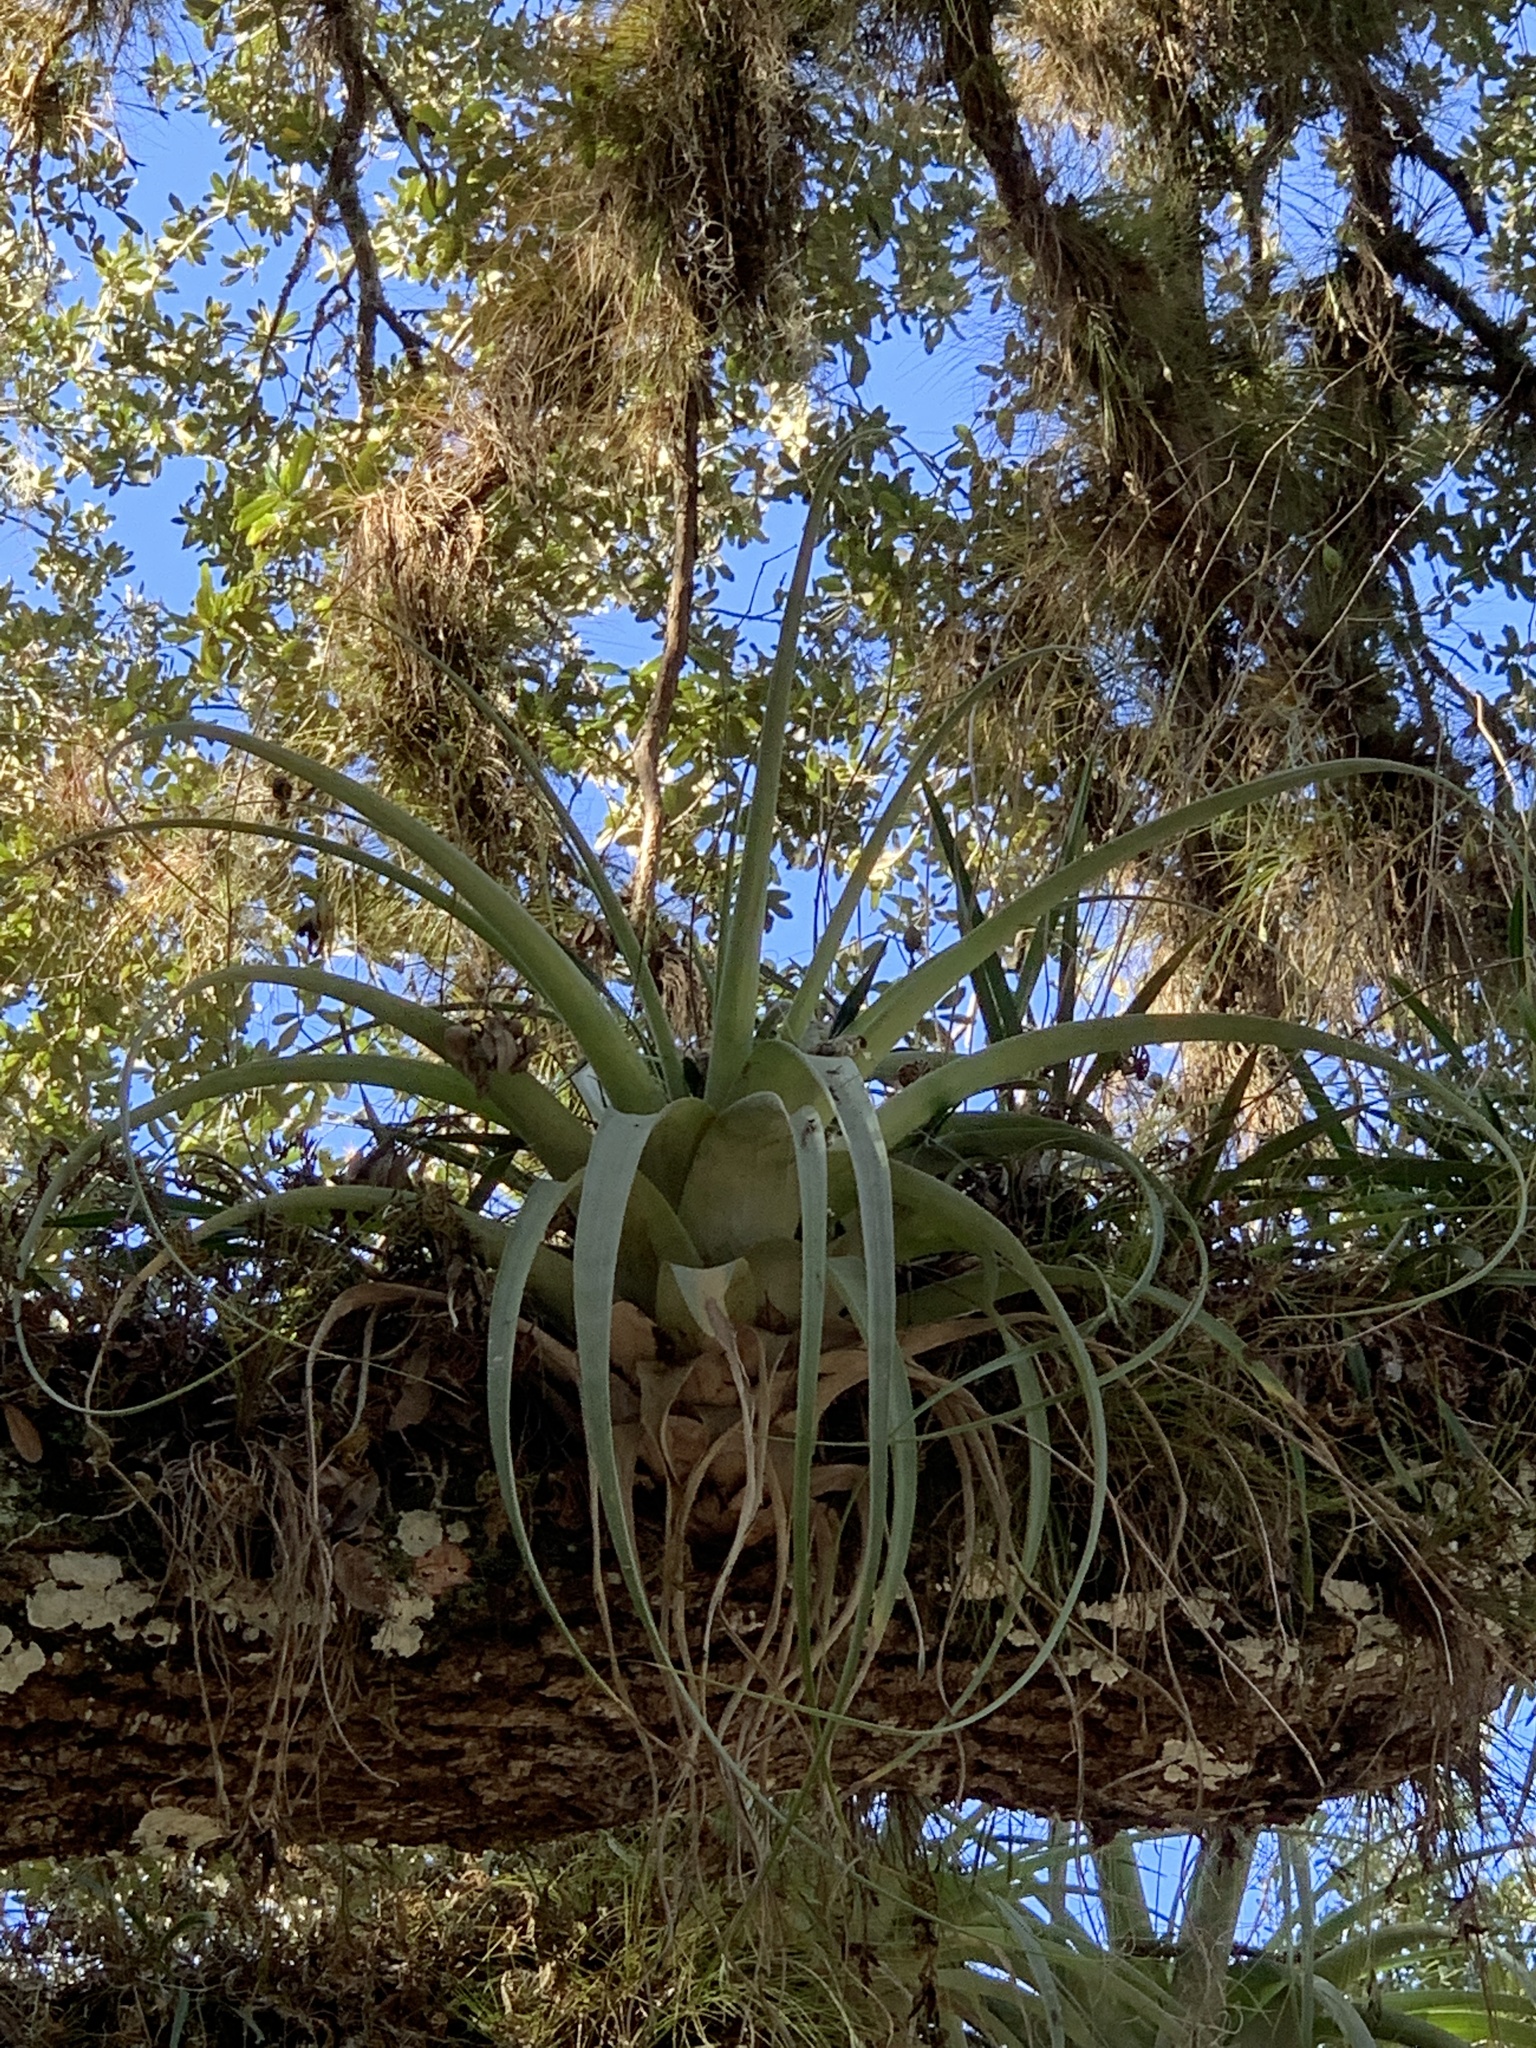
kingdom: Plantae
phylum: Tracheophyta
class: Liliopsida
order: Poales
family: Bromeliaceae
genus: Tillandsia
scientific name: Tillandsia utriculata
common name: Wild pine
